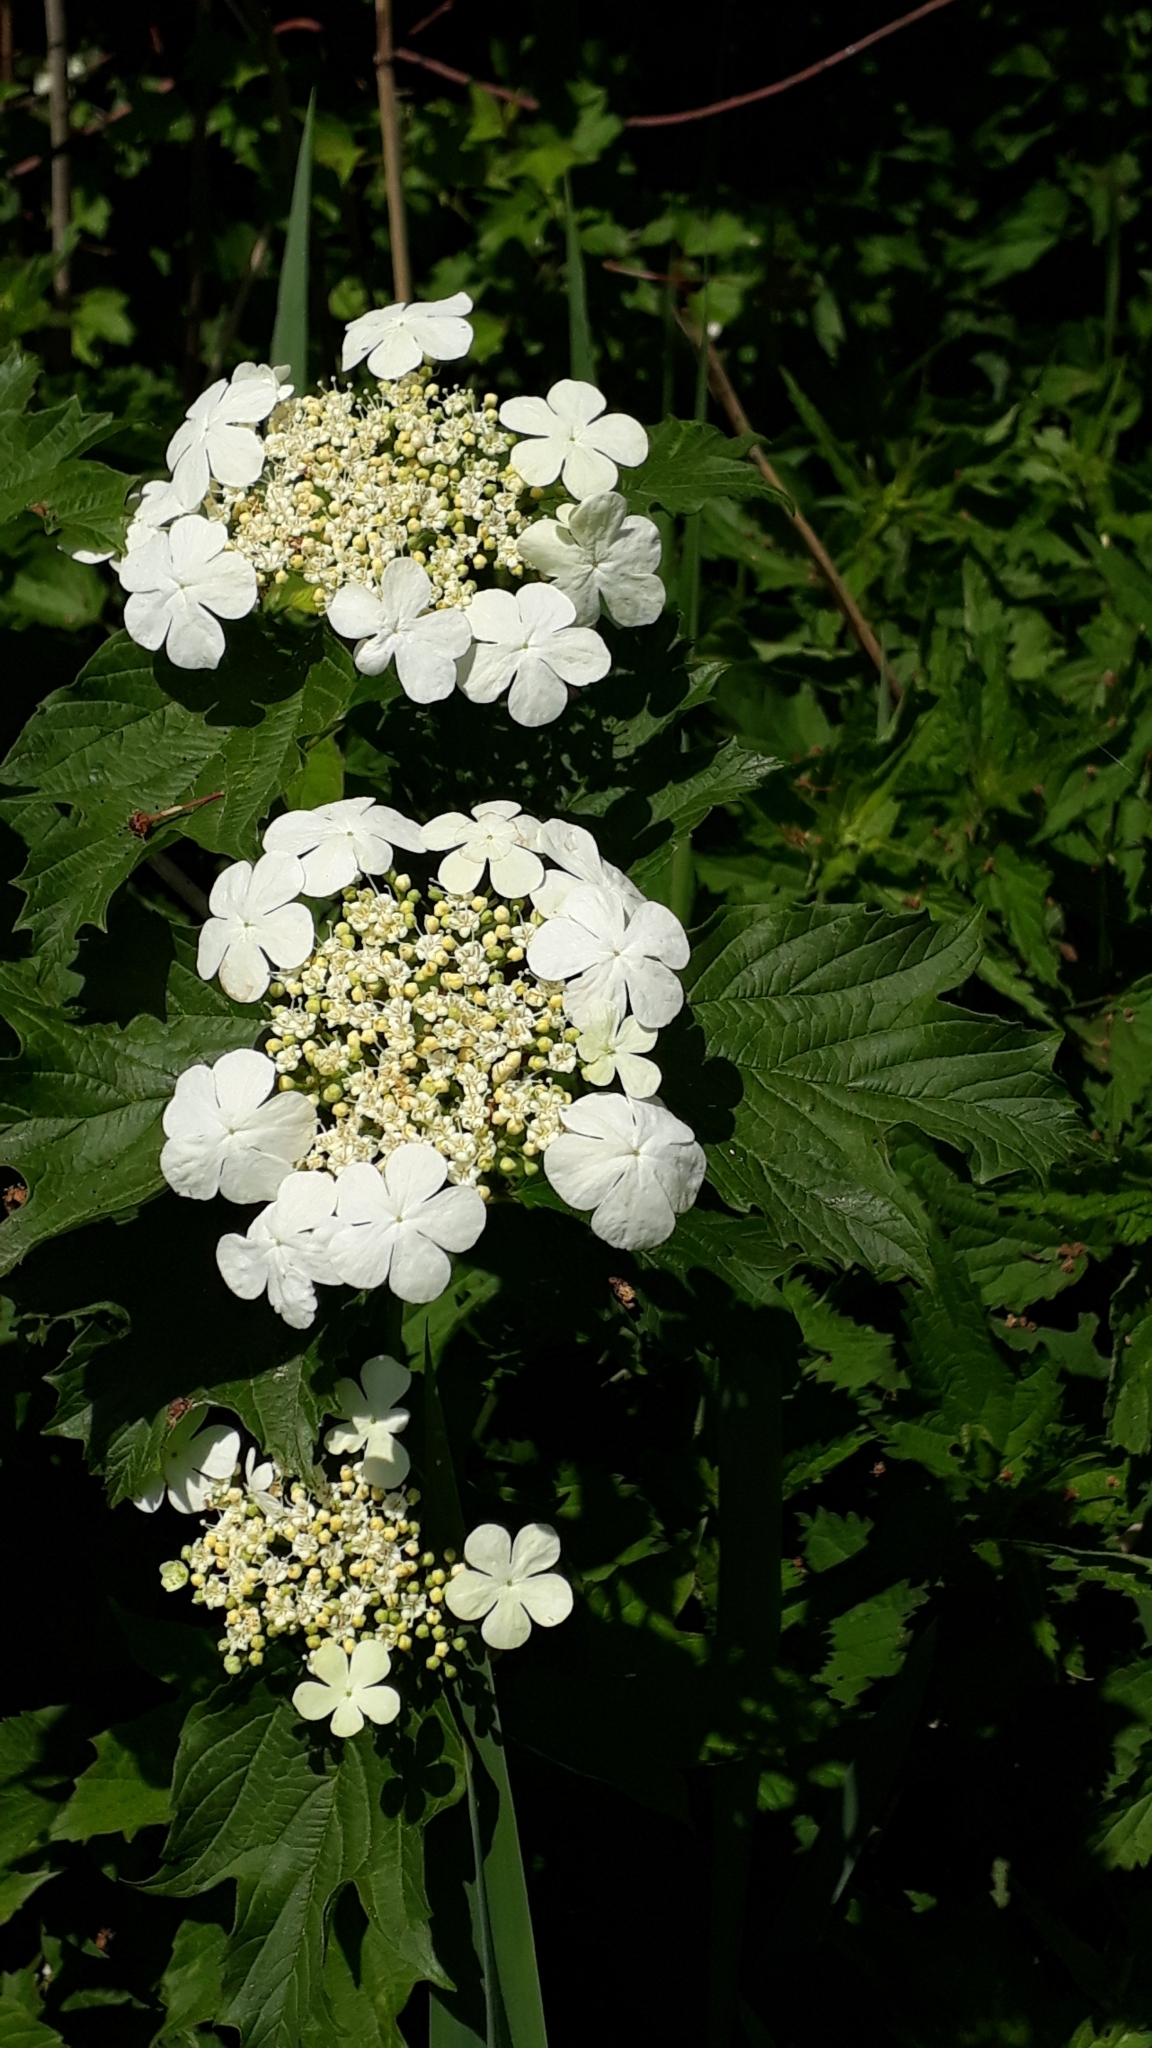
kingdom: Plantae
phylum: Tracheophyta
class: Magnoliopsida
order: Dipsacales
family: Viburnaceae
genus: Viburnum
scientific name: Viburnum opulus
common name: Guelder-rose
